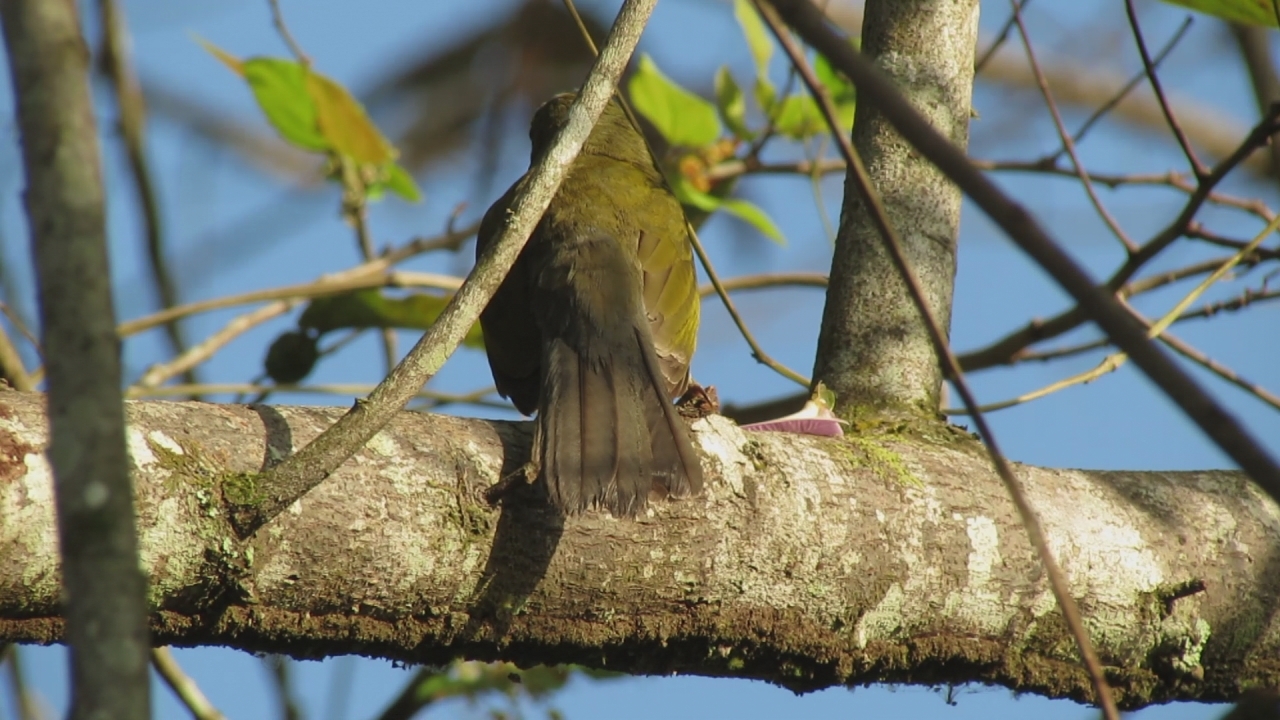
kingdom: Animalia
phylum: Chordata
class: Aves
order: Passeriformes
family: Thraupidae
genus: Saltator
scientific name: Saltator striatipectus
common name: Streaked saltator
